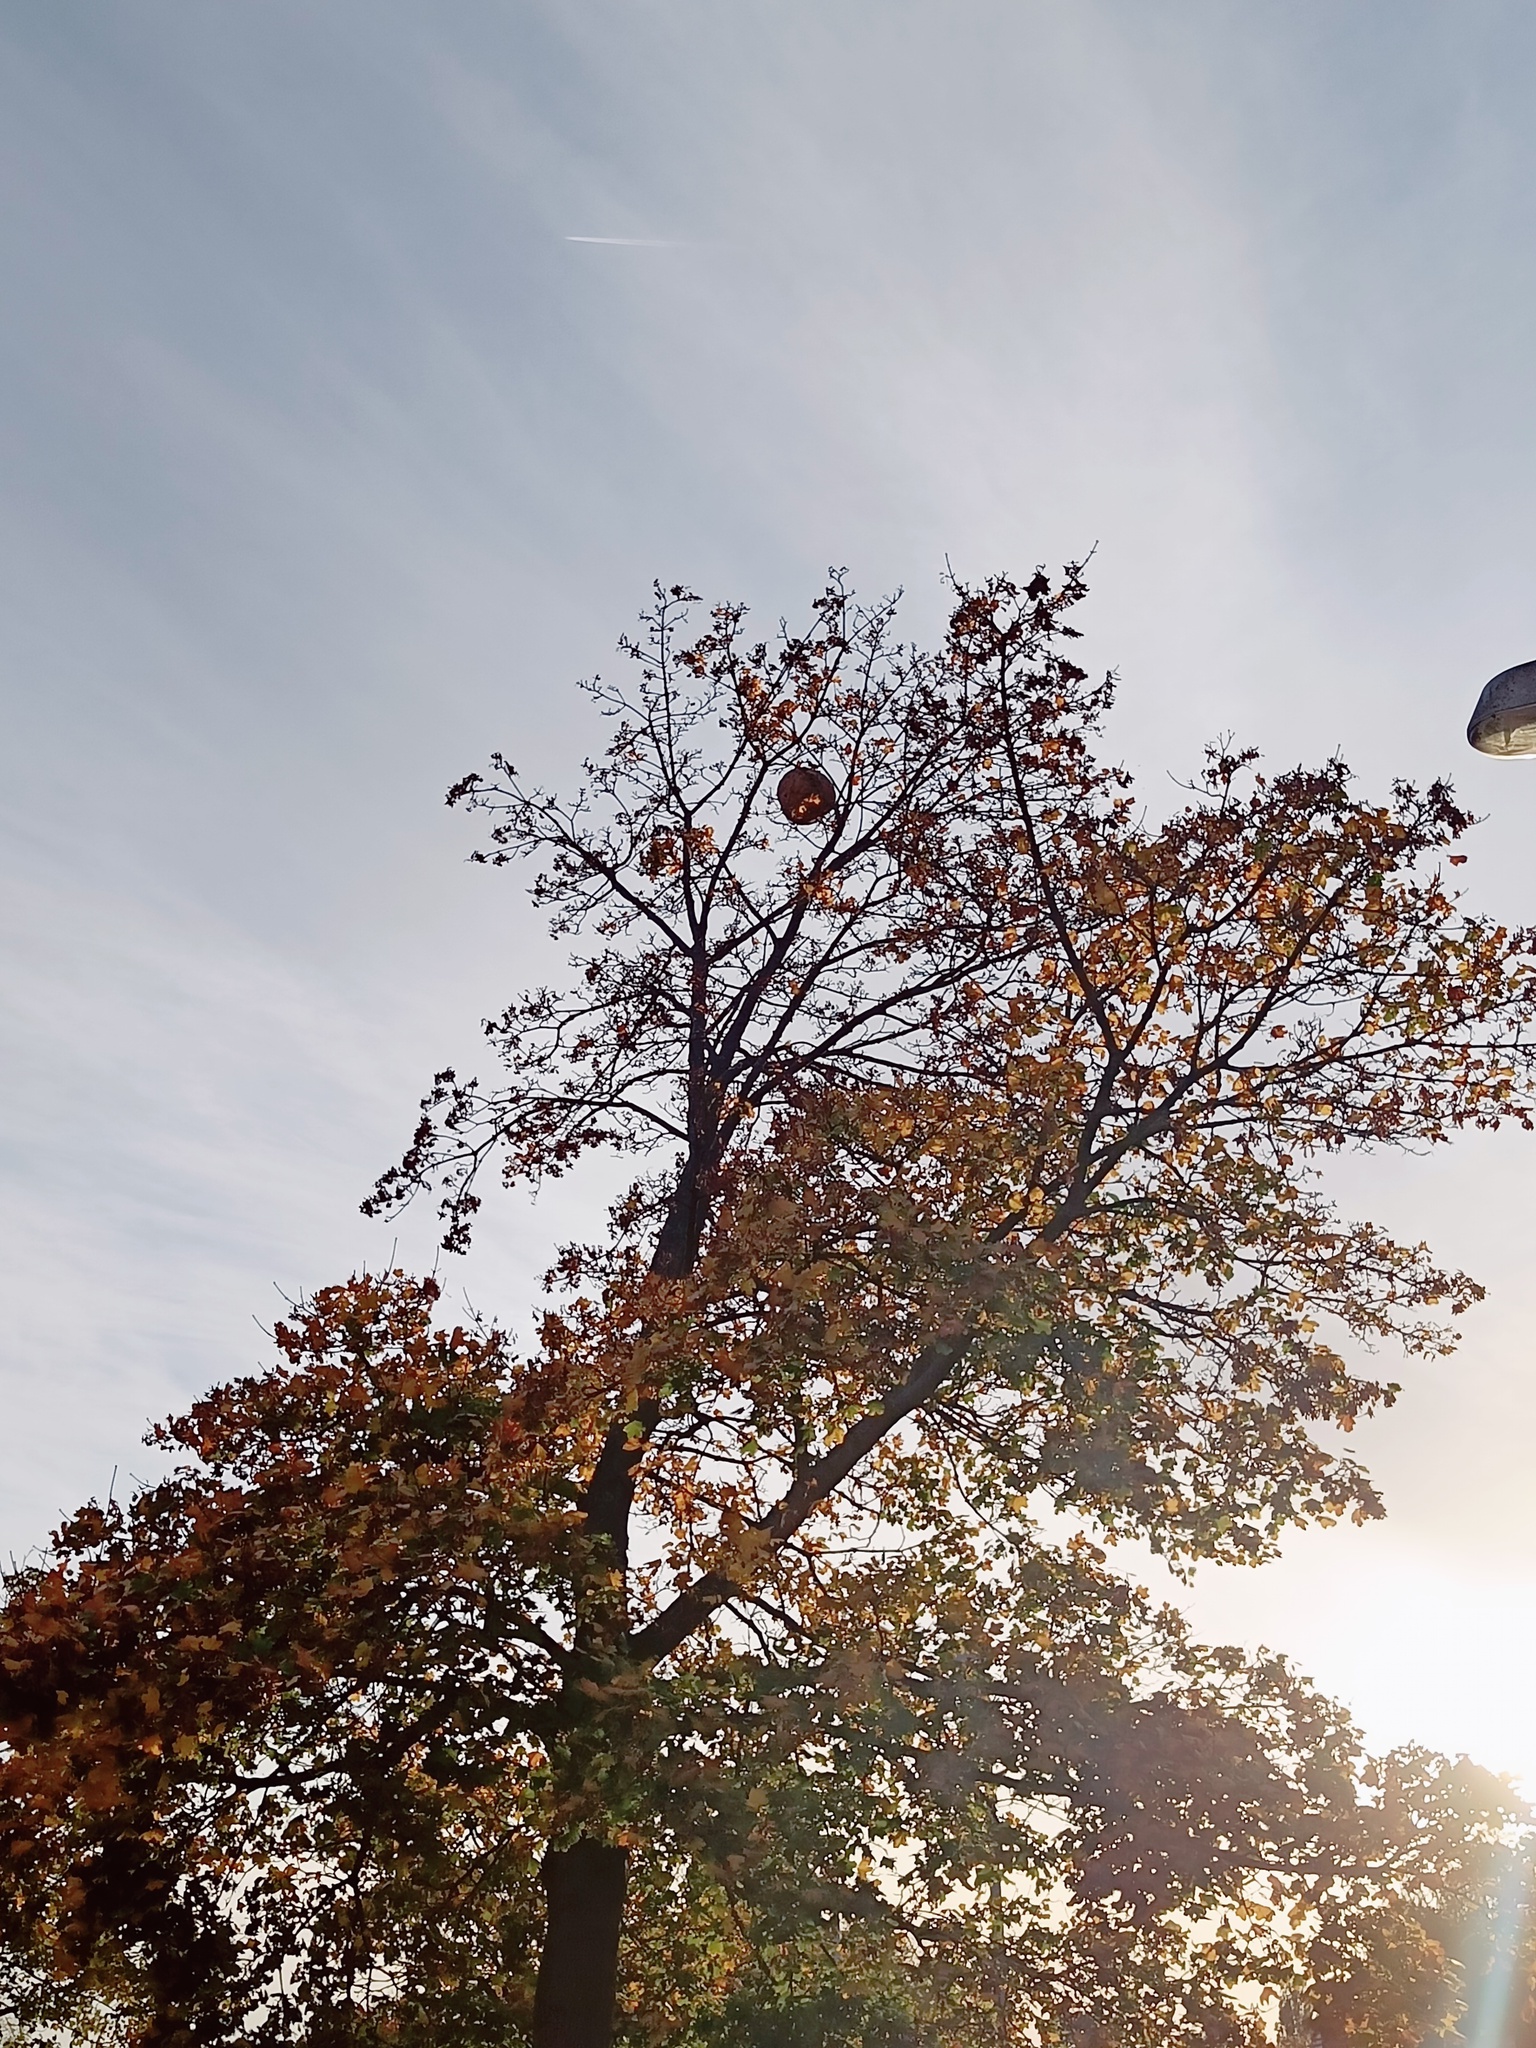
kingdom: Animalia
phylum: Arthropoda
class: Insecta
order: Hymenoptera
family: Vespidae
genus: Vespa
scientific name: Vespa velutina
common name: Asian hornet
